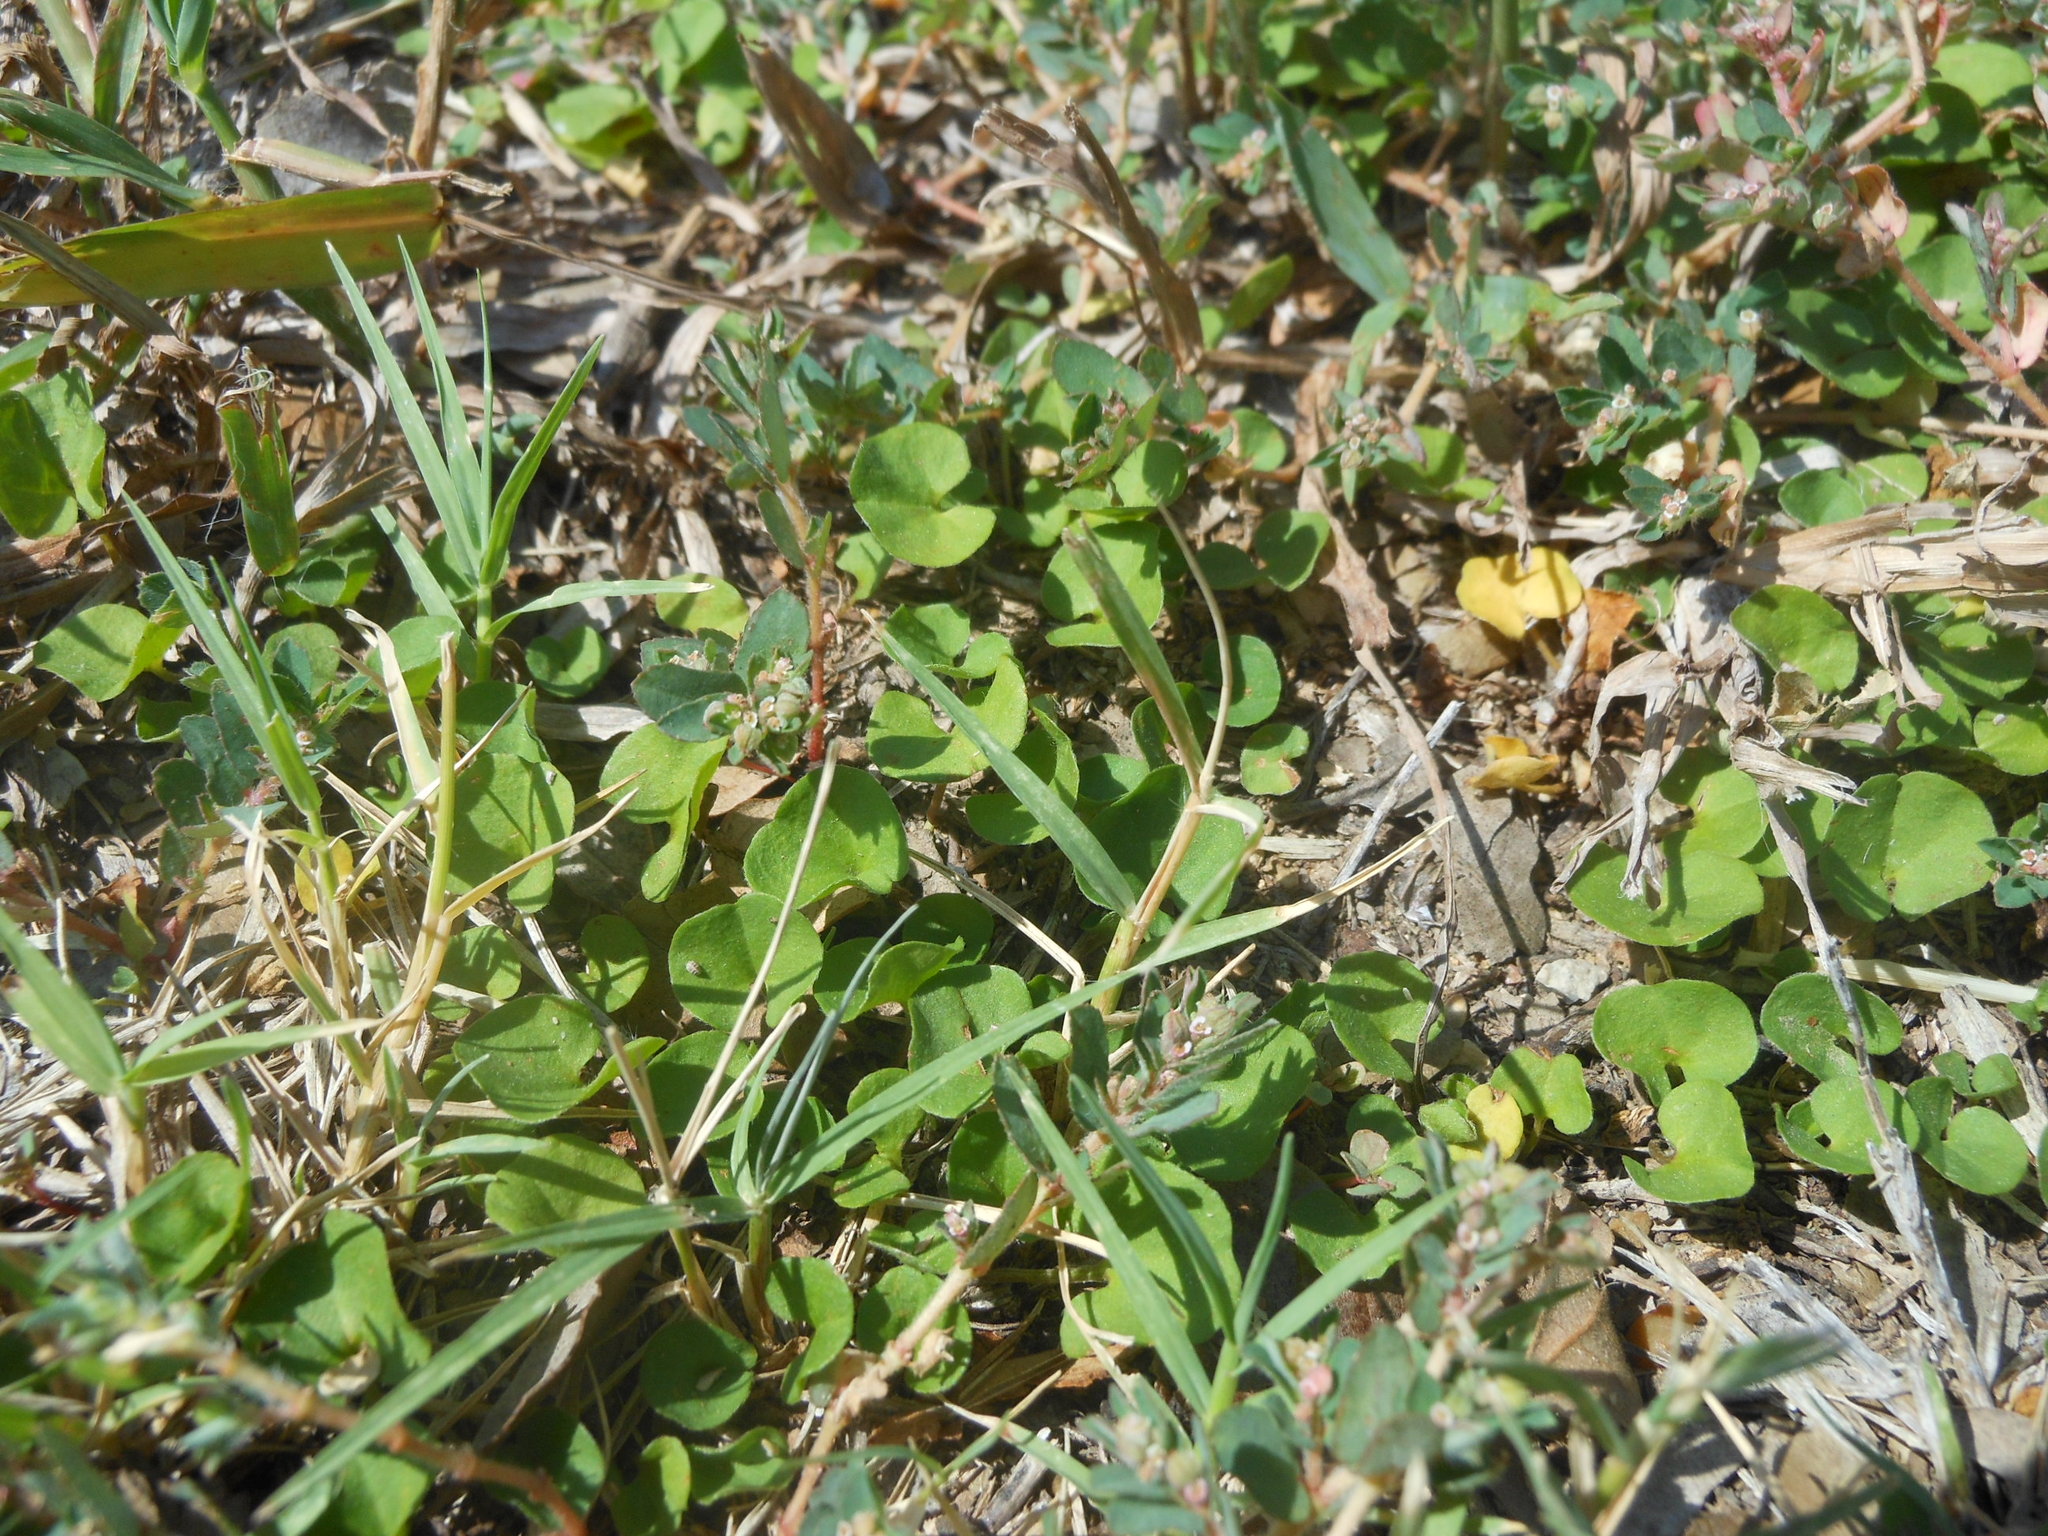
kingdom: Plantae
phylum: Tracheophyta
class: Magnoliopsida
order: Solanales
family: Convolvulaceae
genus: Dichondra
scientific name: Dichondra carolinensis
